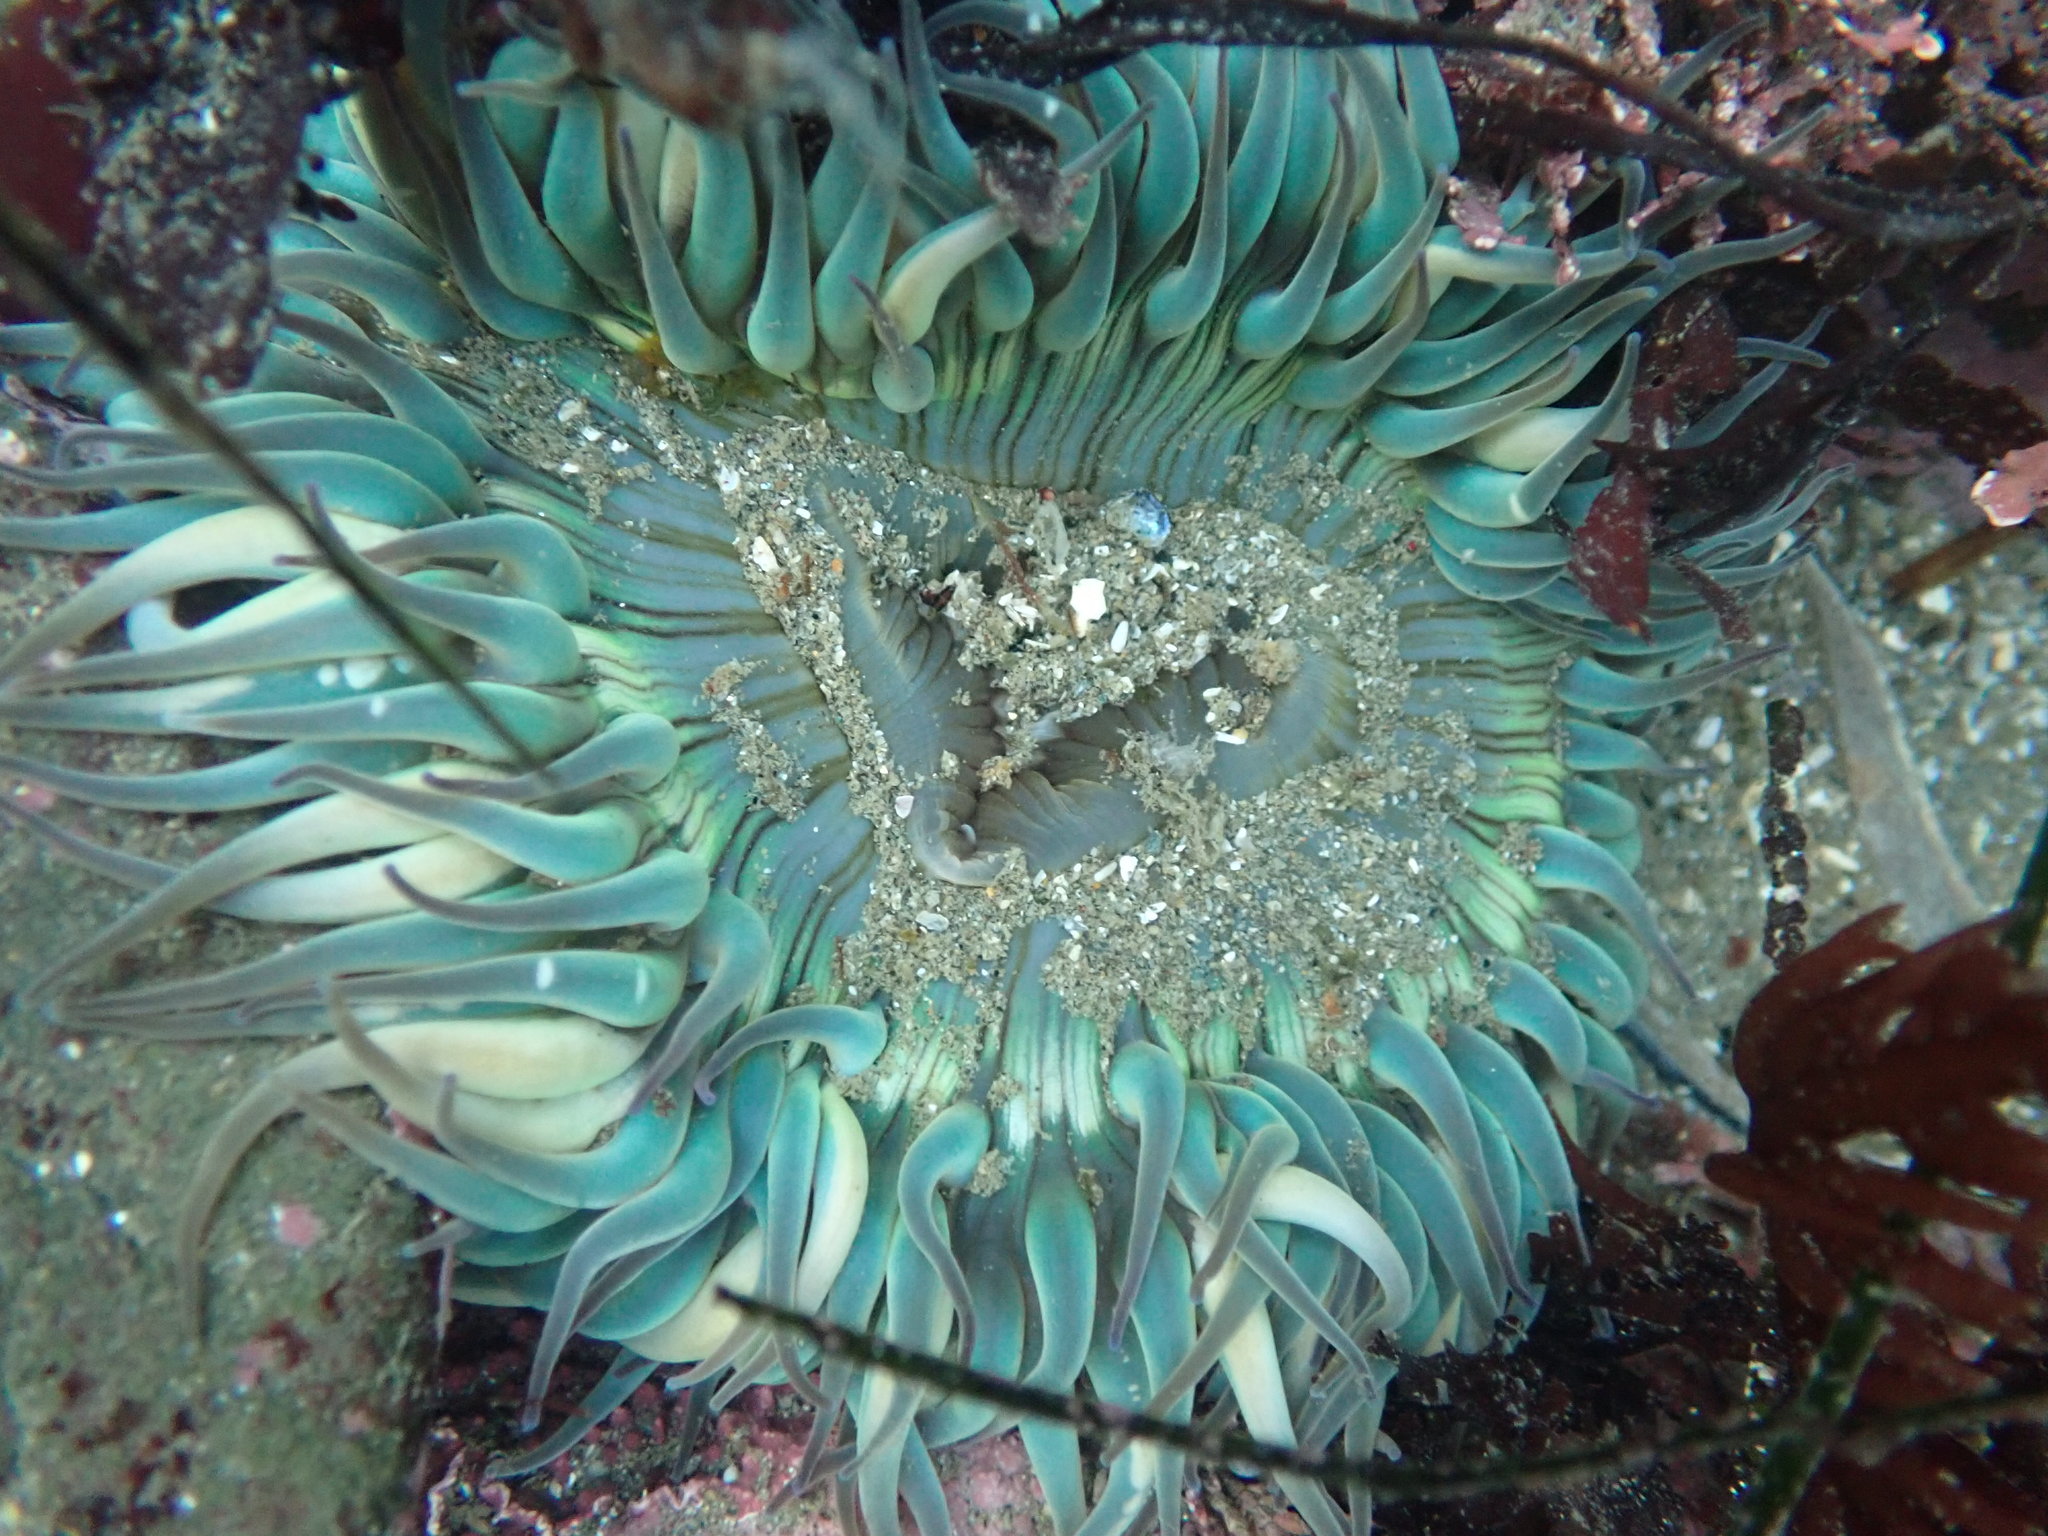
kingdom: Animalia
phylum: Cnidaria
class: Anthozoa
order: Actiniaria
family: Actiniidae
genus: Anthopleura
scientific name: Anthopleura sola
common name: Sun anemone
